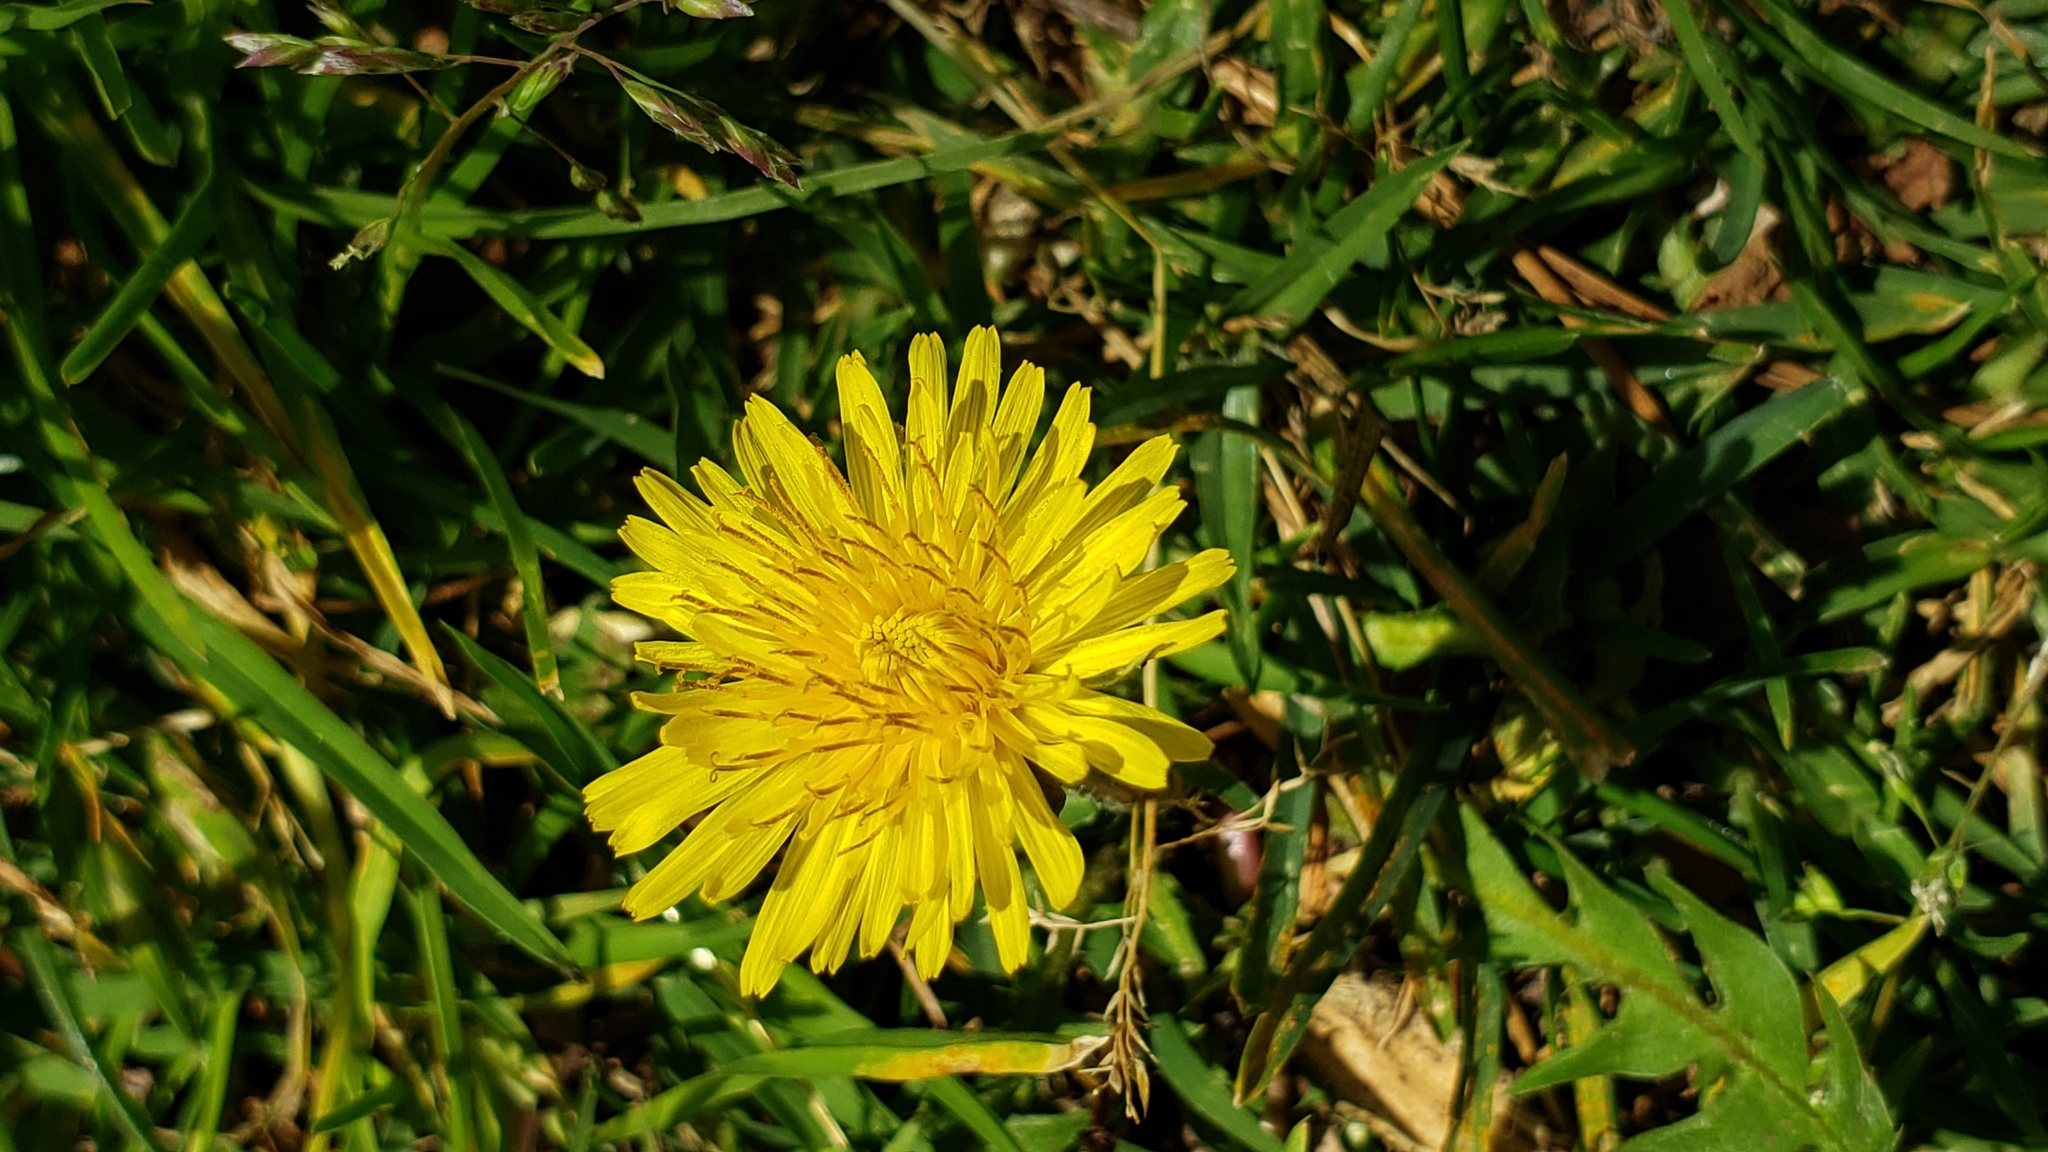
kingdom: Plantae
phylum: Tracheophyta
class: Magnoliopsida
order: Asterales
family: Asteraceae
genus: Taraxacum
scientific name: Taraxacum officinale
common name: Common dandelion
